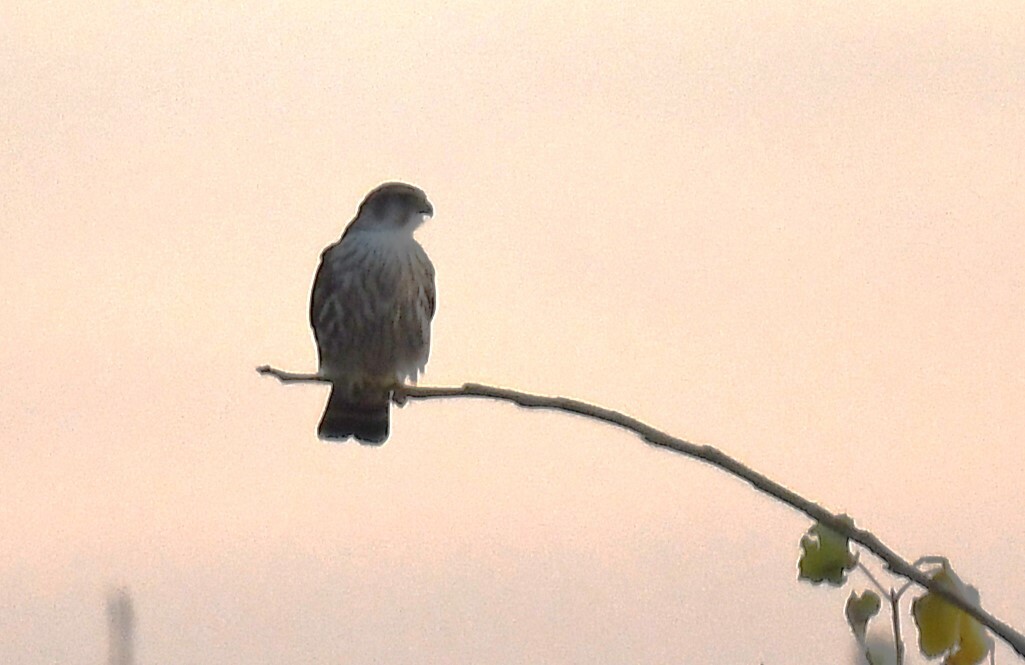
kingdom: Animalia
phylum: Chordata
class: Aves
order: Falconiformes
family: Falconidae
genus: Falco
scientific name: Falco columbarius
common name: Merlin
